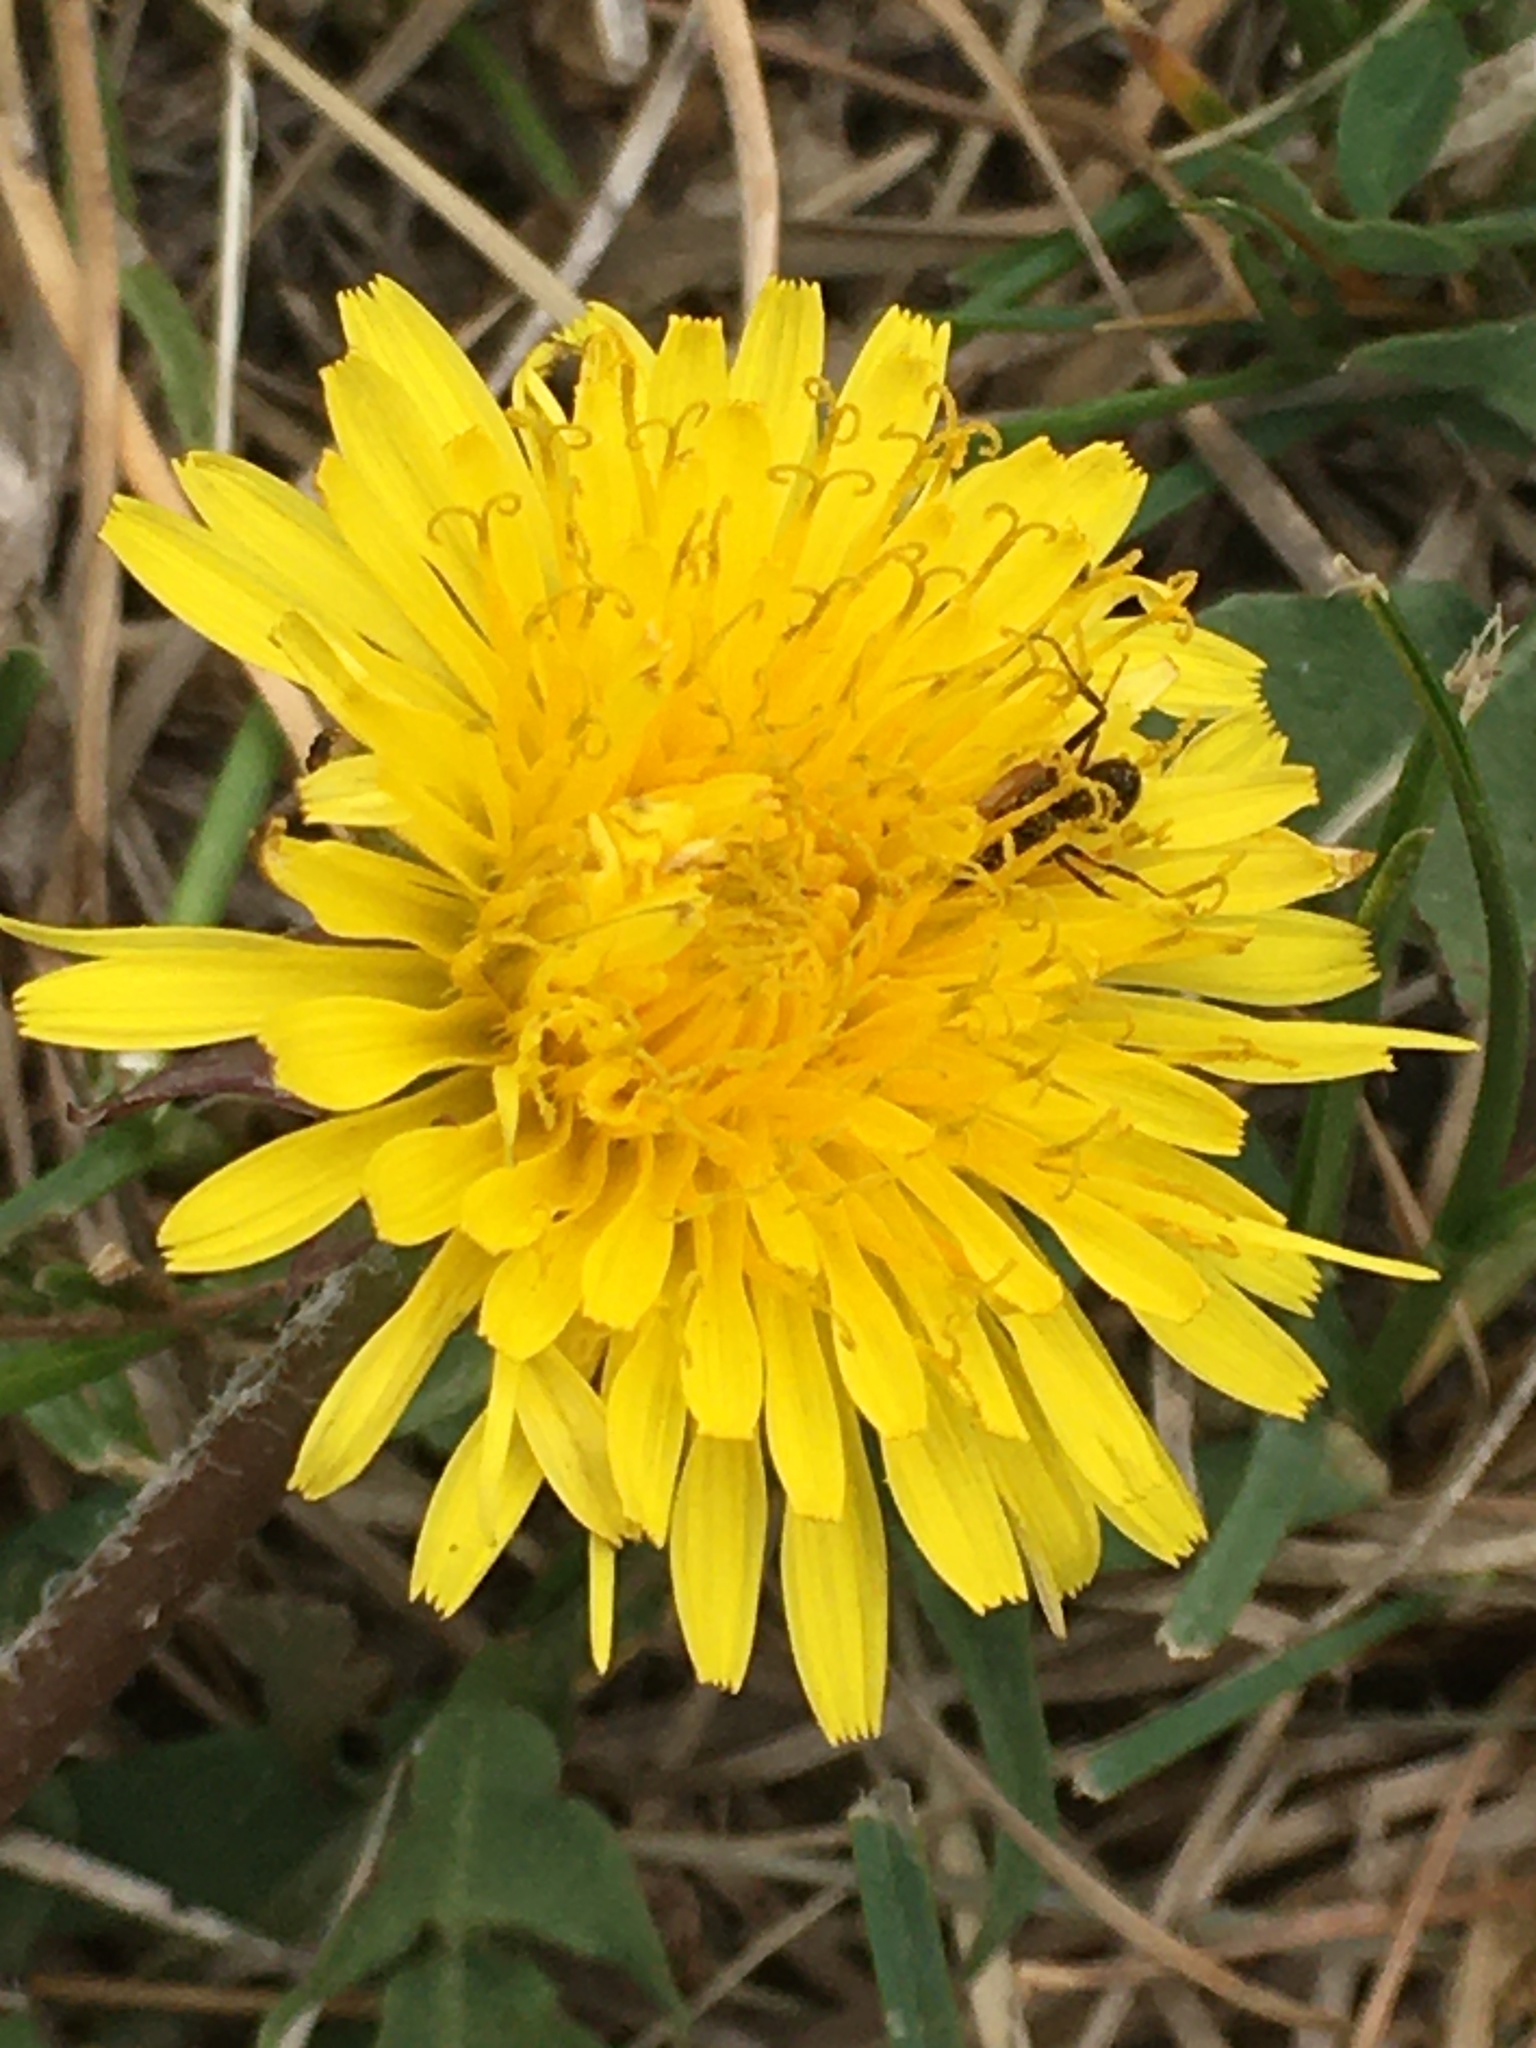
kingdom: Plantae
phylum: Tracheophyta
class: Magnoliopsida
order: Asterales
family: Asteraceae
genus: Taraxacum
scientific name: Taraxacum officinale
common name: Common dandelion
